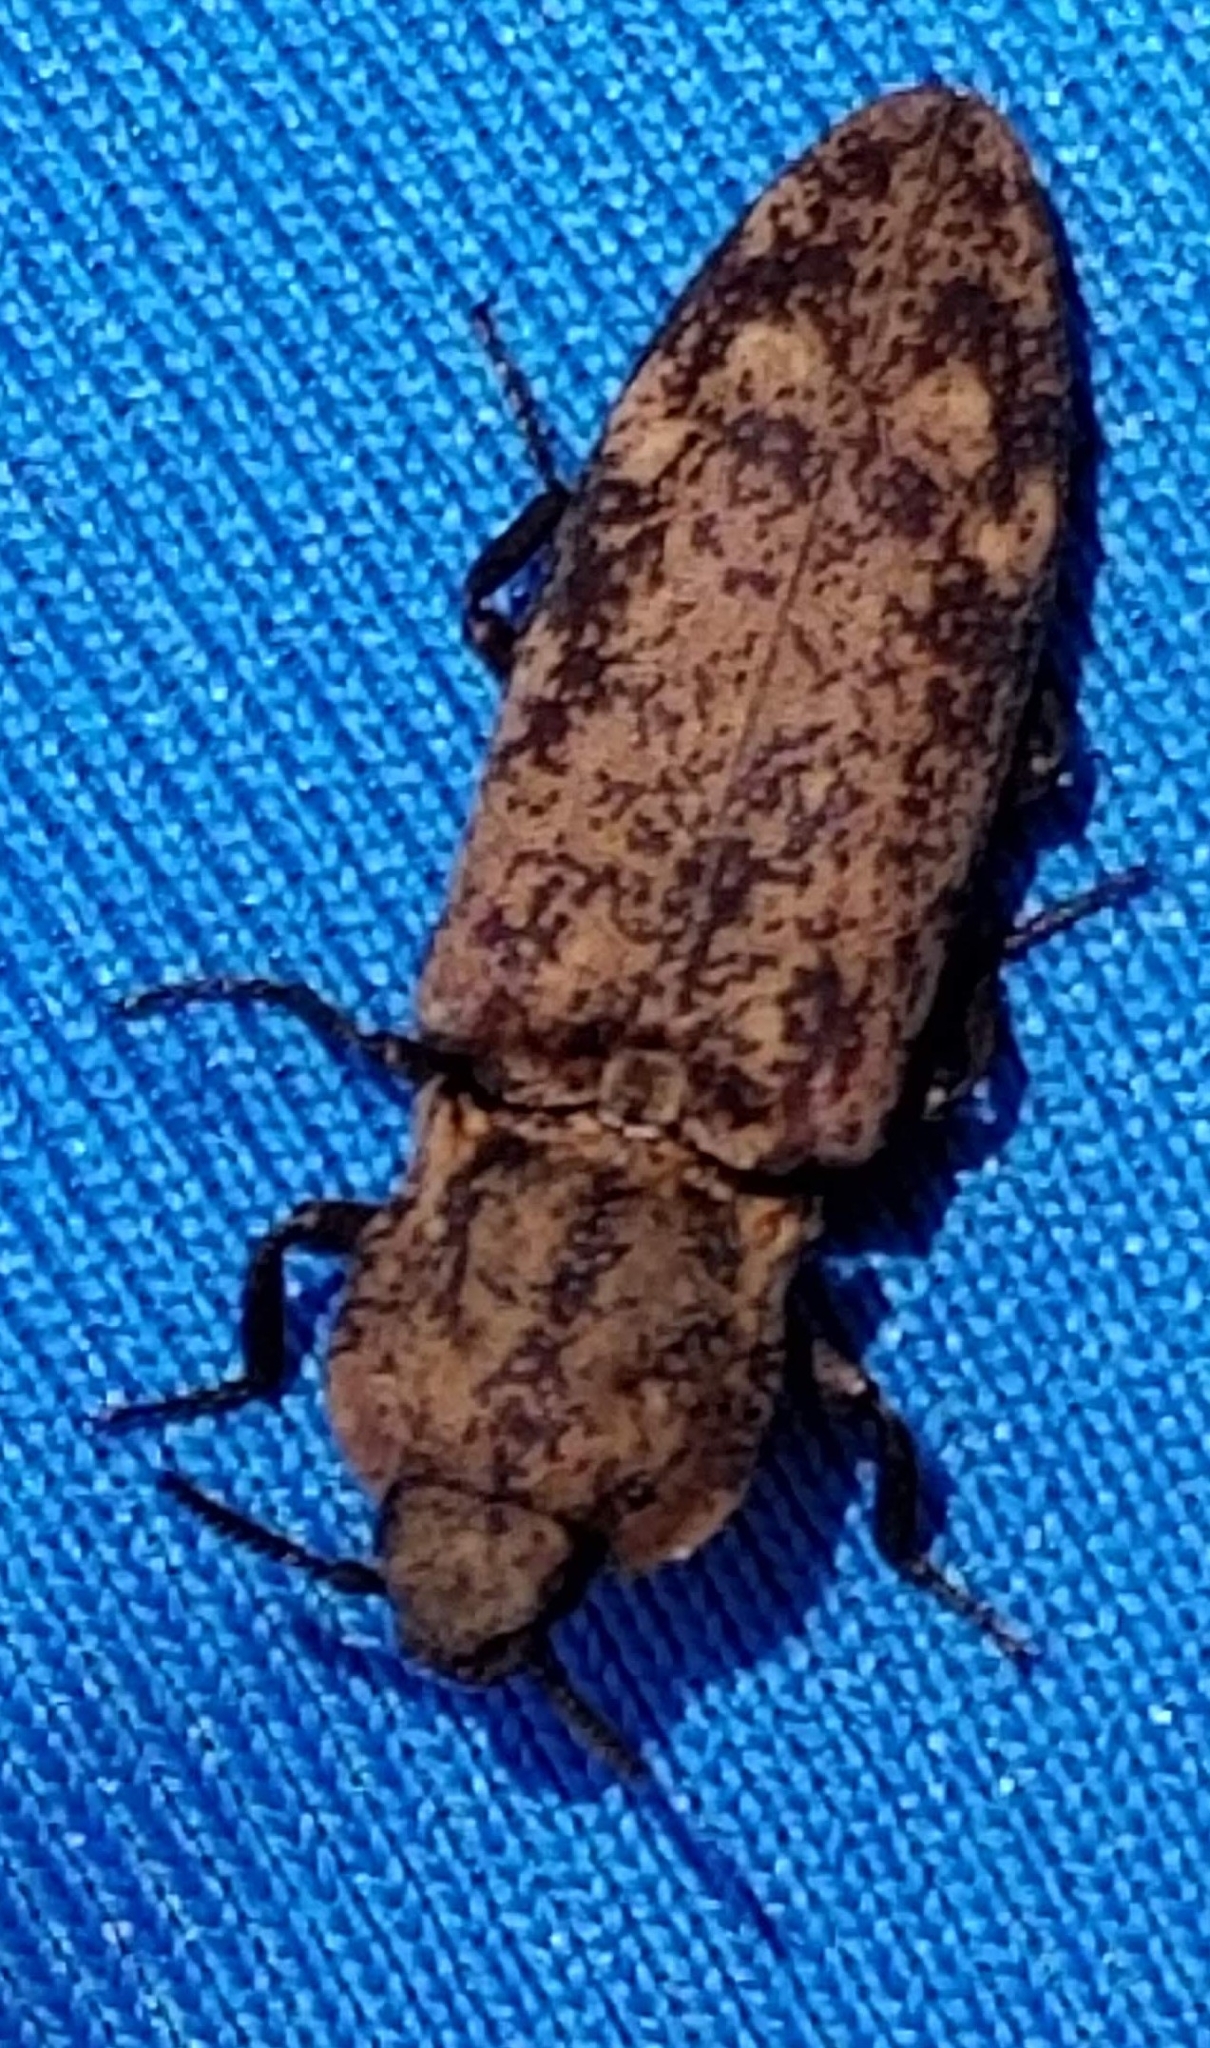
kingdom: Animalia
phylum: Arthropoda
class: Insecta
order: Coleoptera
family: Elateridae
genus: Danosoma
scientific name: Danosoma brevicorne
